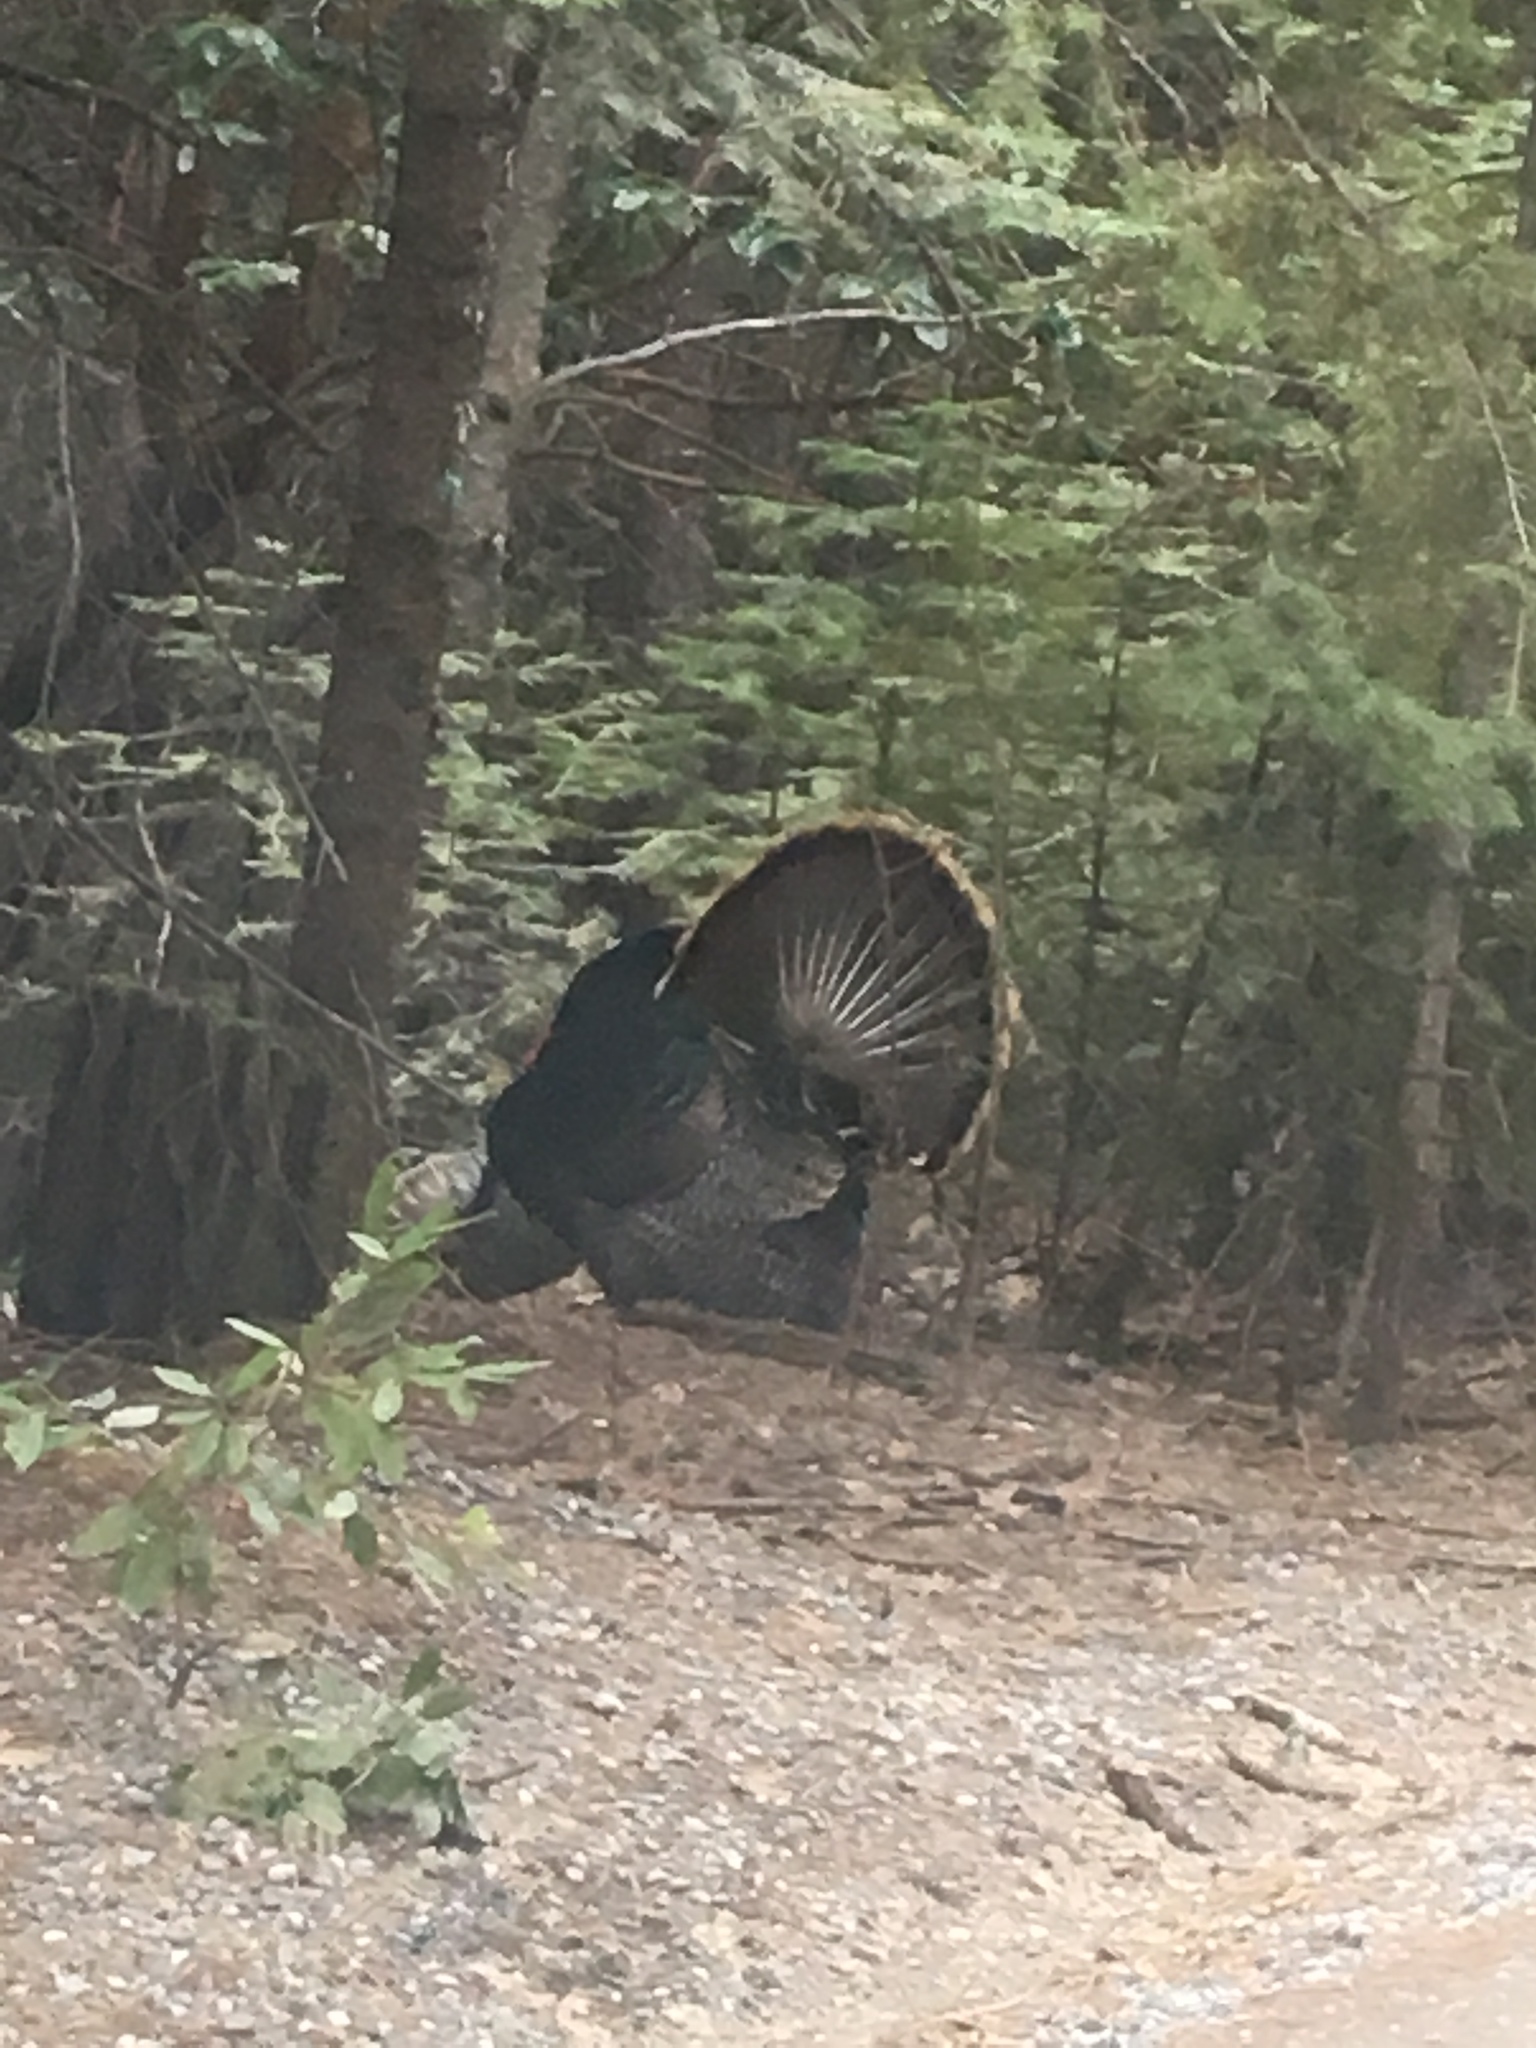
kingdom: Animalia
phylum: Chordata
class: Aves
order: Galliformes
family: Phasianidae
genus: Meleagris
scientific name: Meleagris gallopavo
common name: Wild turkey
